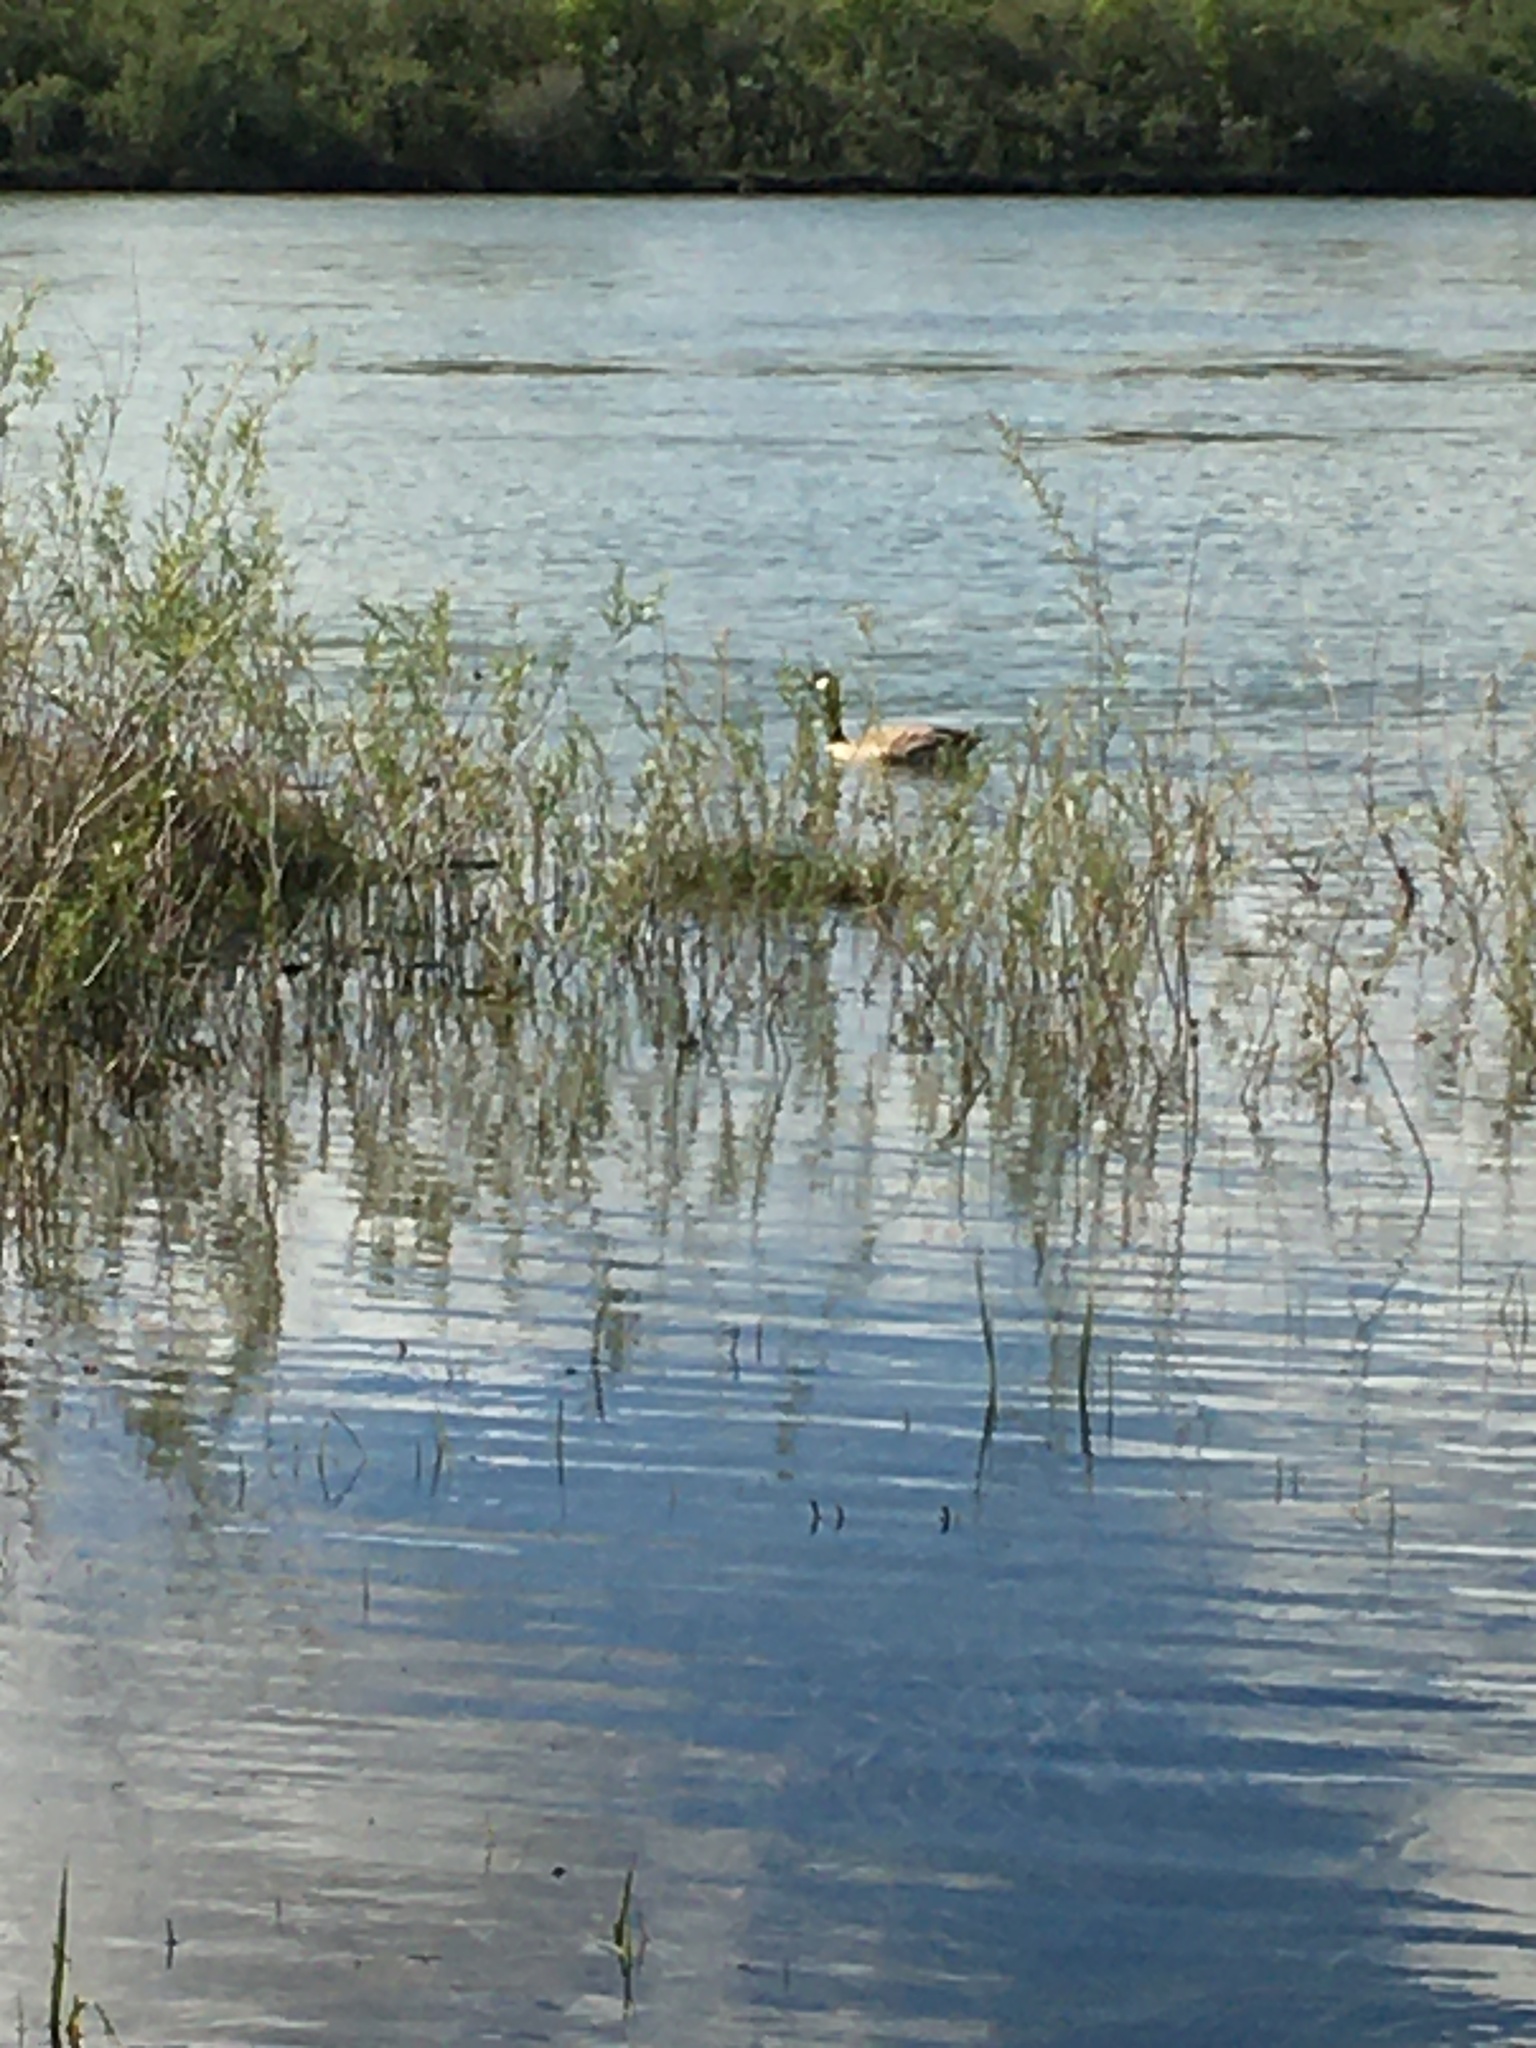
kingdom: Animalia
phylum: Chordata
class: Aves
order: Anseriformes
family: Anatidae
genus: Branta
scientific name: Branta canadensis
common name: Canada goose
